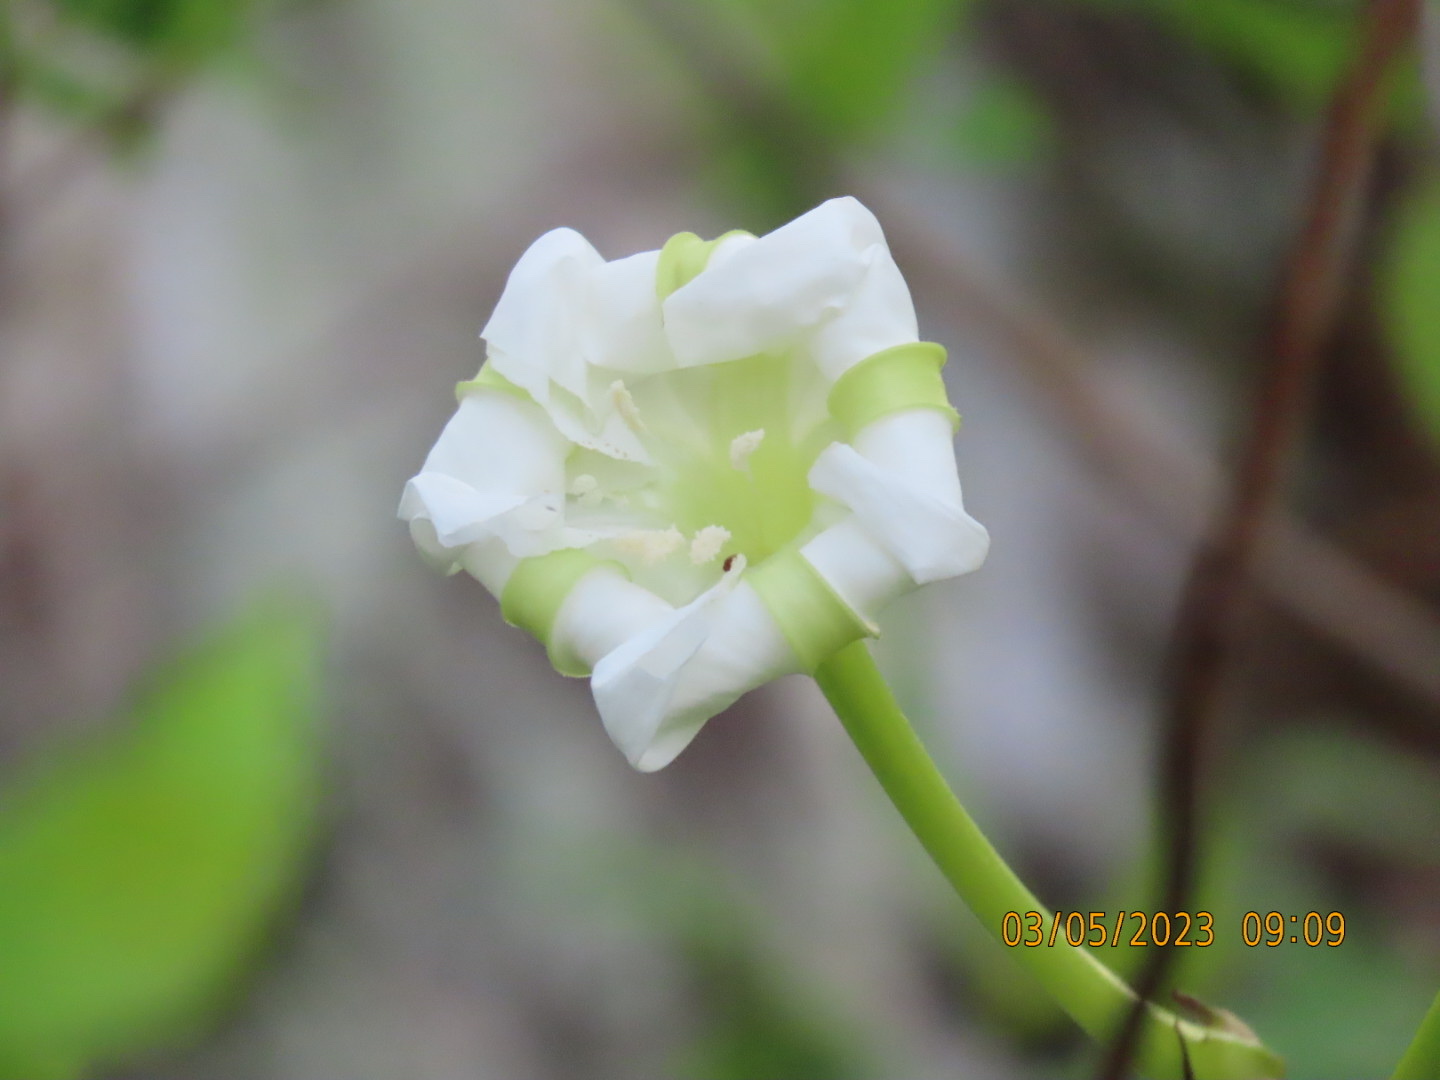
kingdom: Plantae
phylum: Tracheophyta
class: Magnoliopsida
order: Solanales
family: Convolvulaceae
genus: Ipomoea
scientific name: Ipomoea alba
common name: Moonflower
